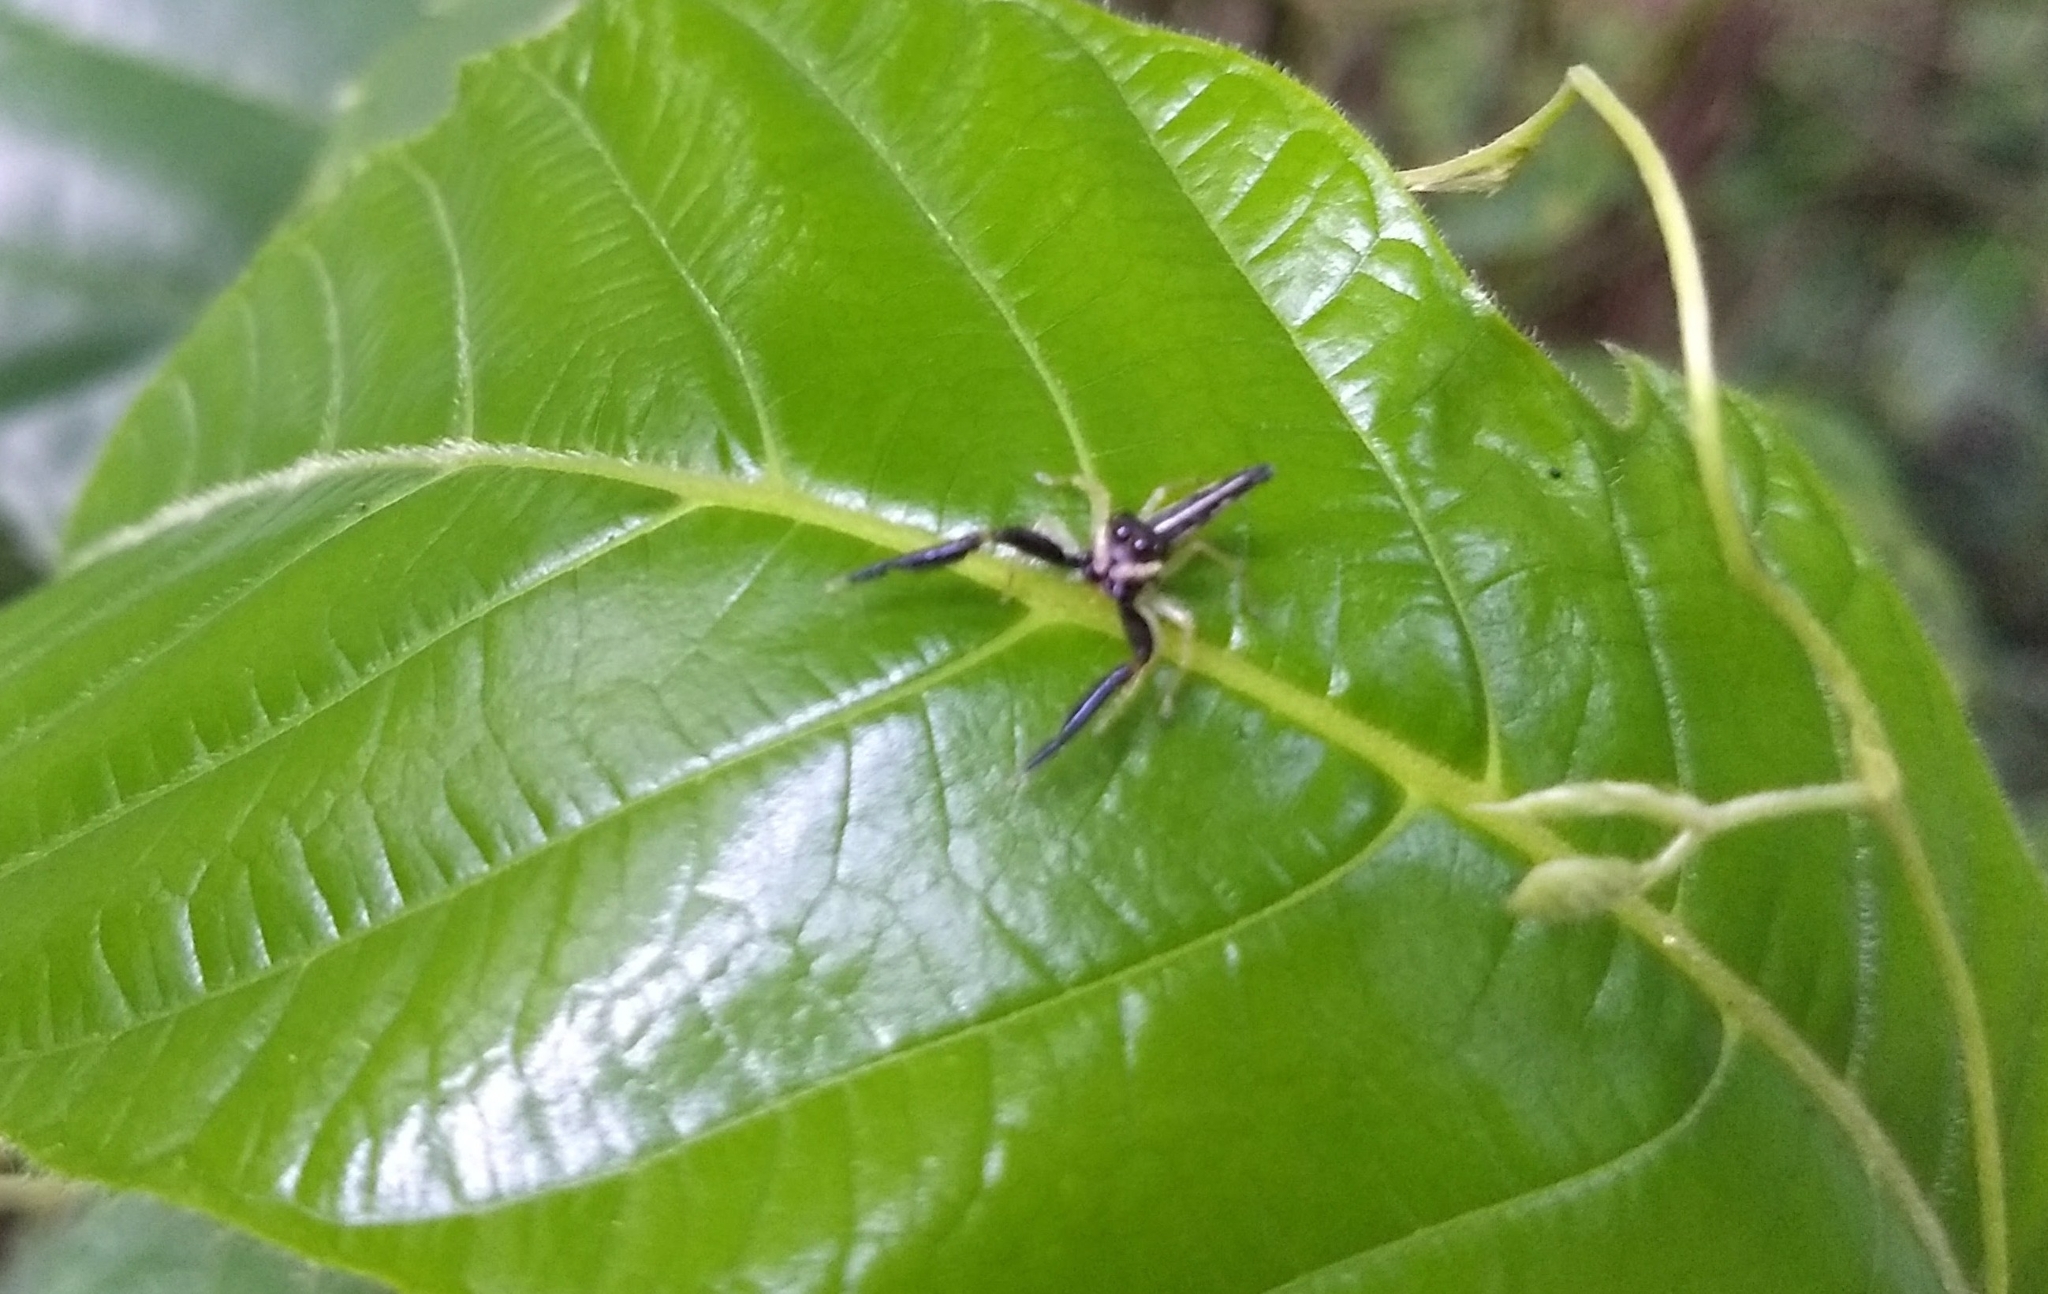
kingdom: Animalia
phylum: Arthropoda
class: Arachnida
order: Araneae
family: Salticidae
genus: Indopadilla
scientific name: Indopadilla insularis
